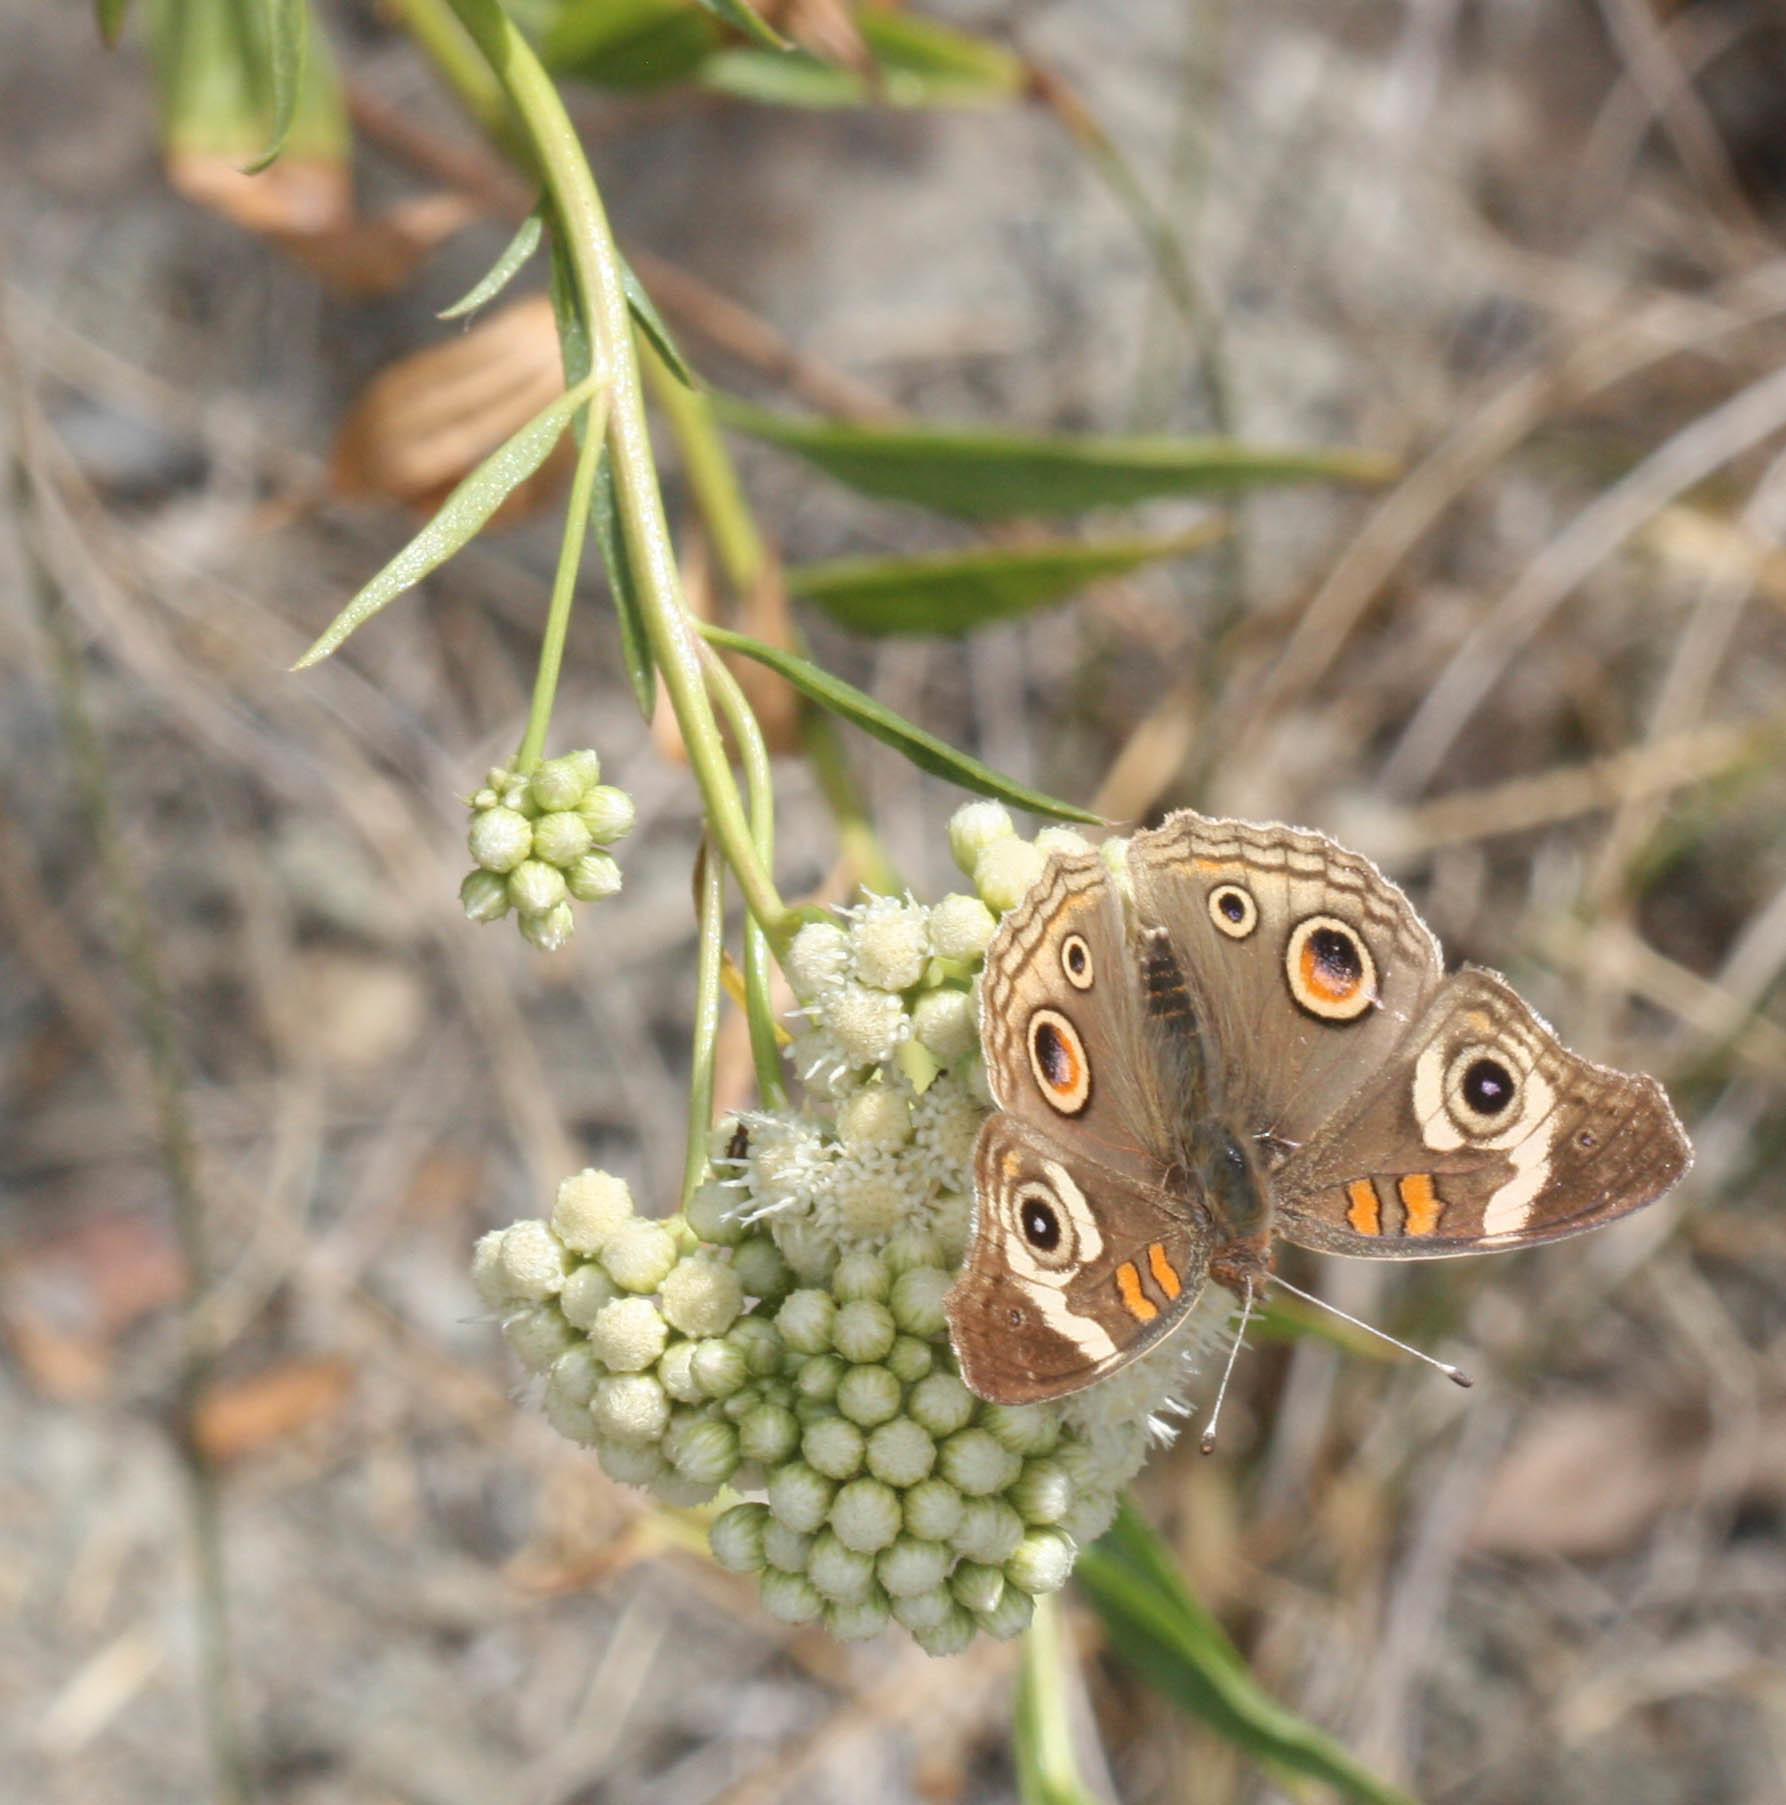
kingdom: Animalia
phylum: Arthropoda
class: Insecta
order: Lepidoptera
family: Nymphalidae
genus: Junonia
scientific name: Junonia grisea
